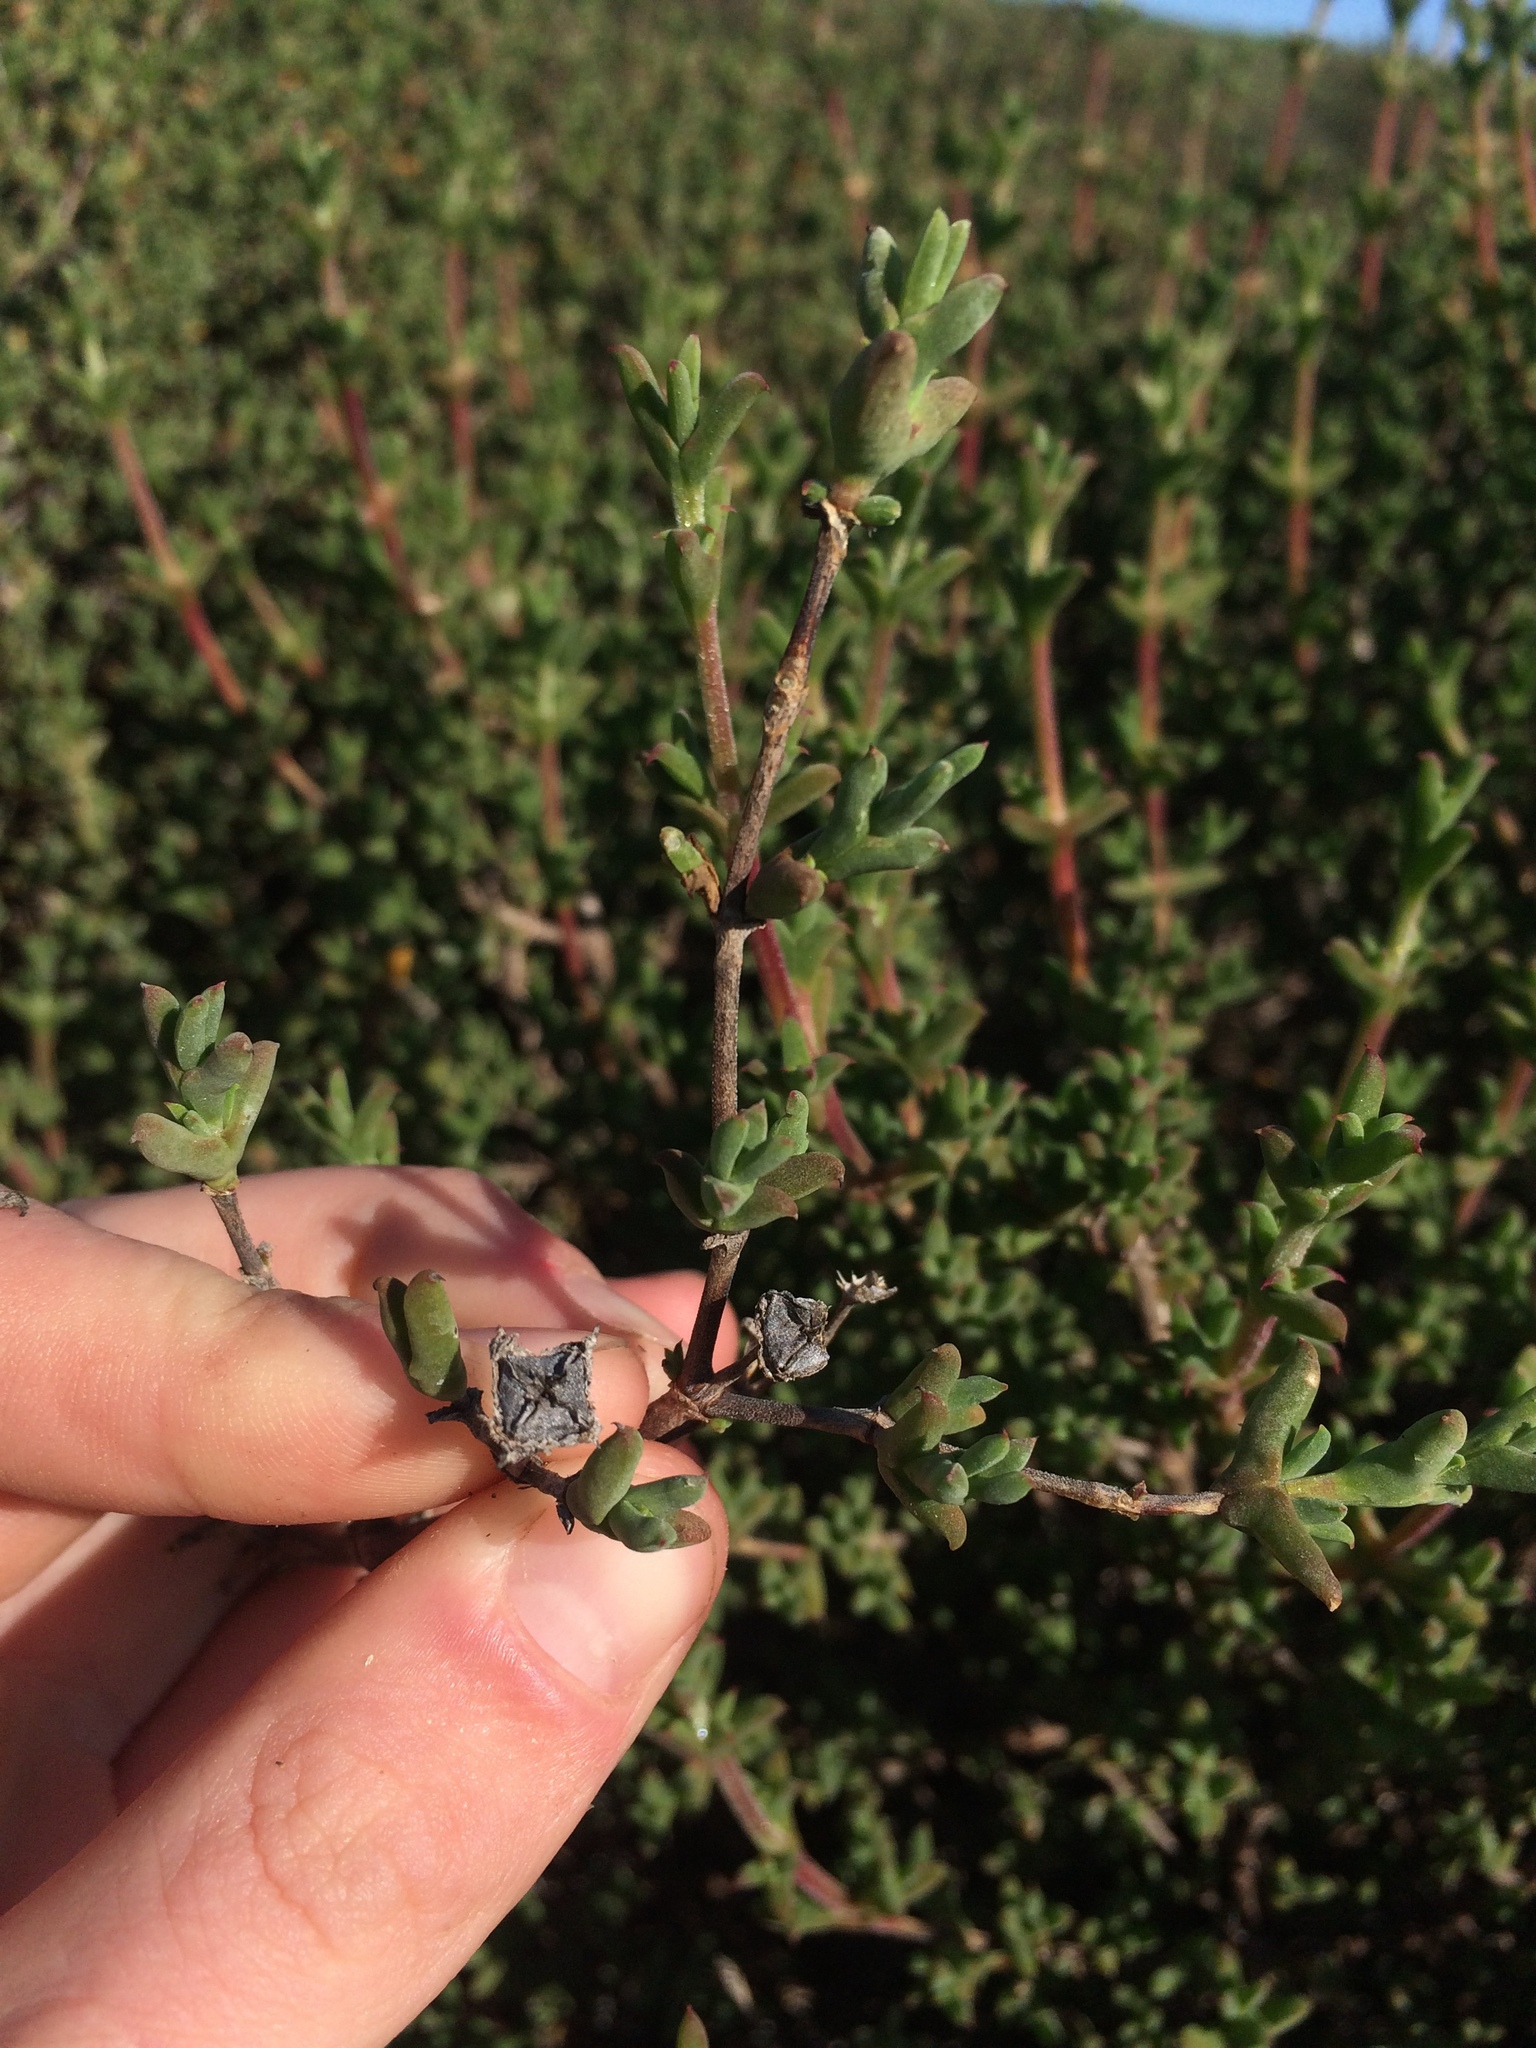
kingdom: Plantae
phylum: Tracheophyta
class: Magnoliopsida
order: Caryophyllales
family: Aizoaceae
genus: Delosperma
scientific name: Delosperma asperulum
